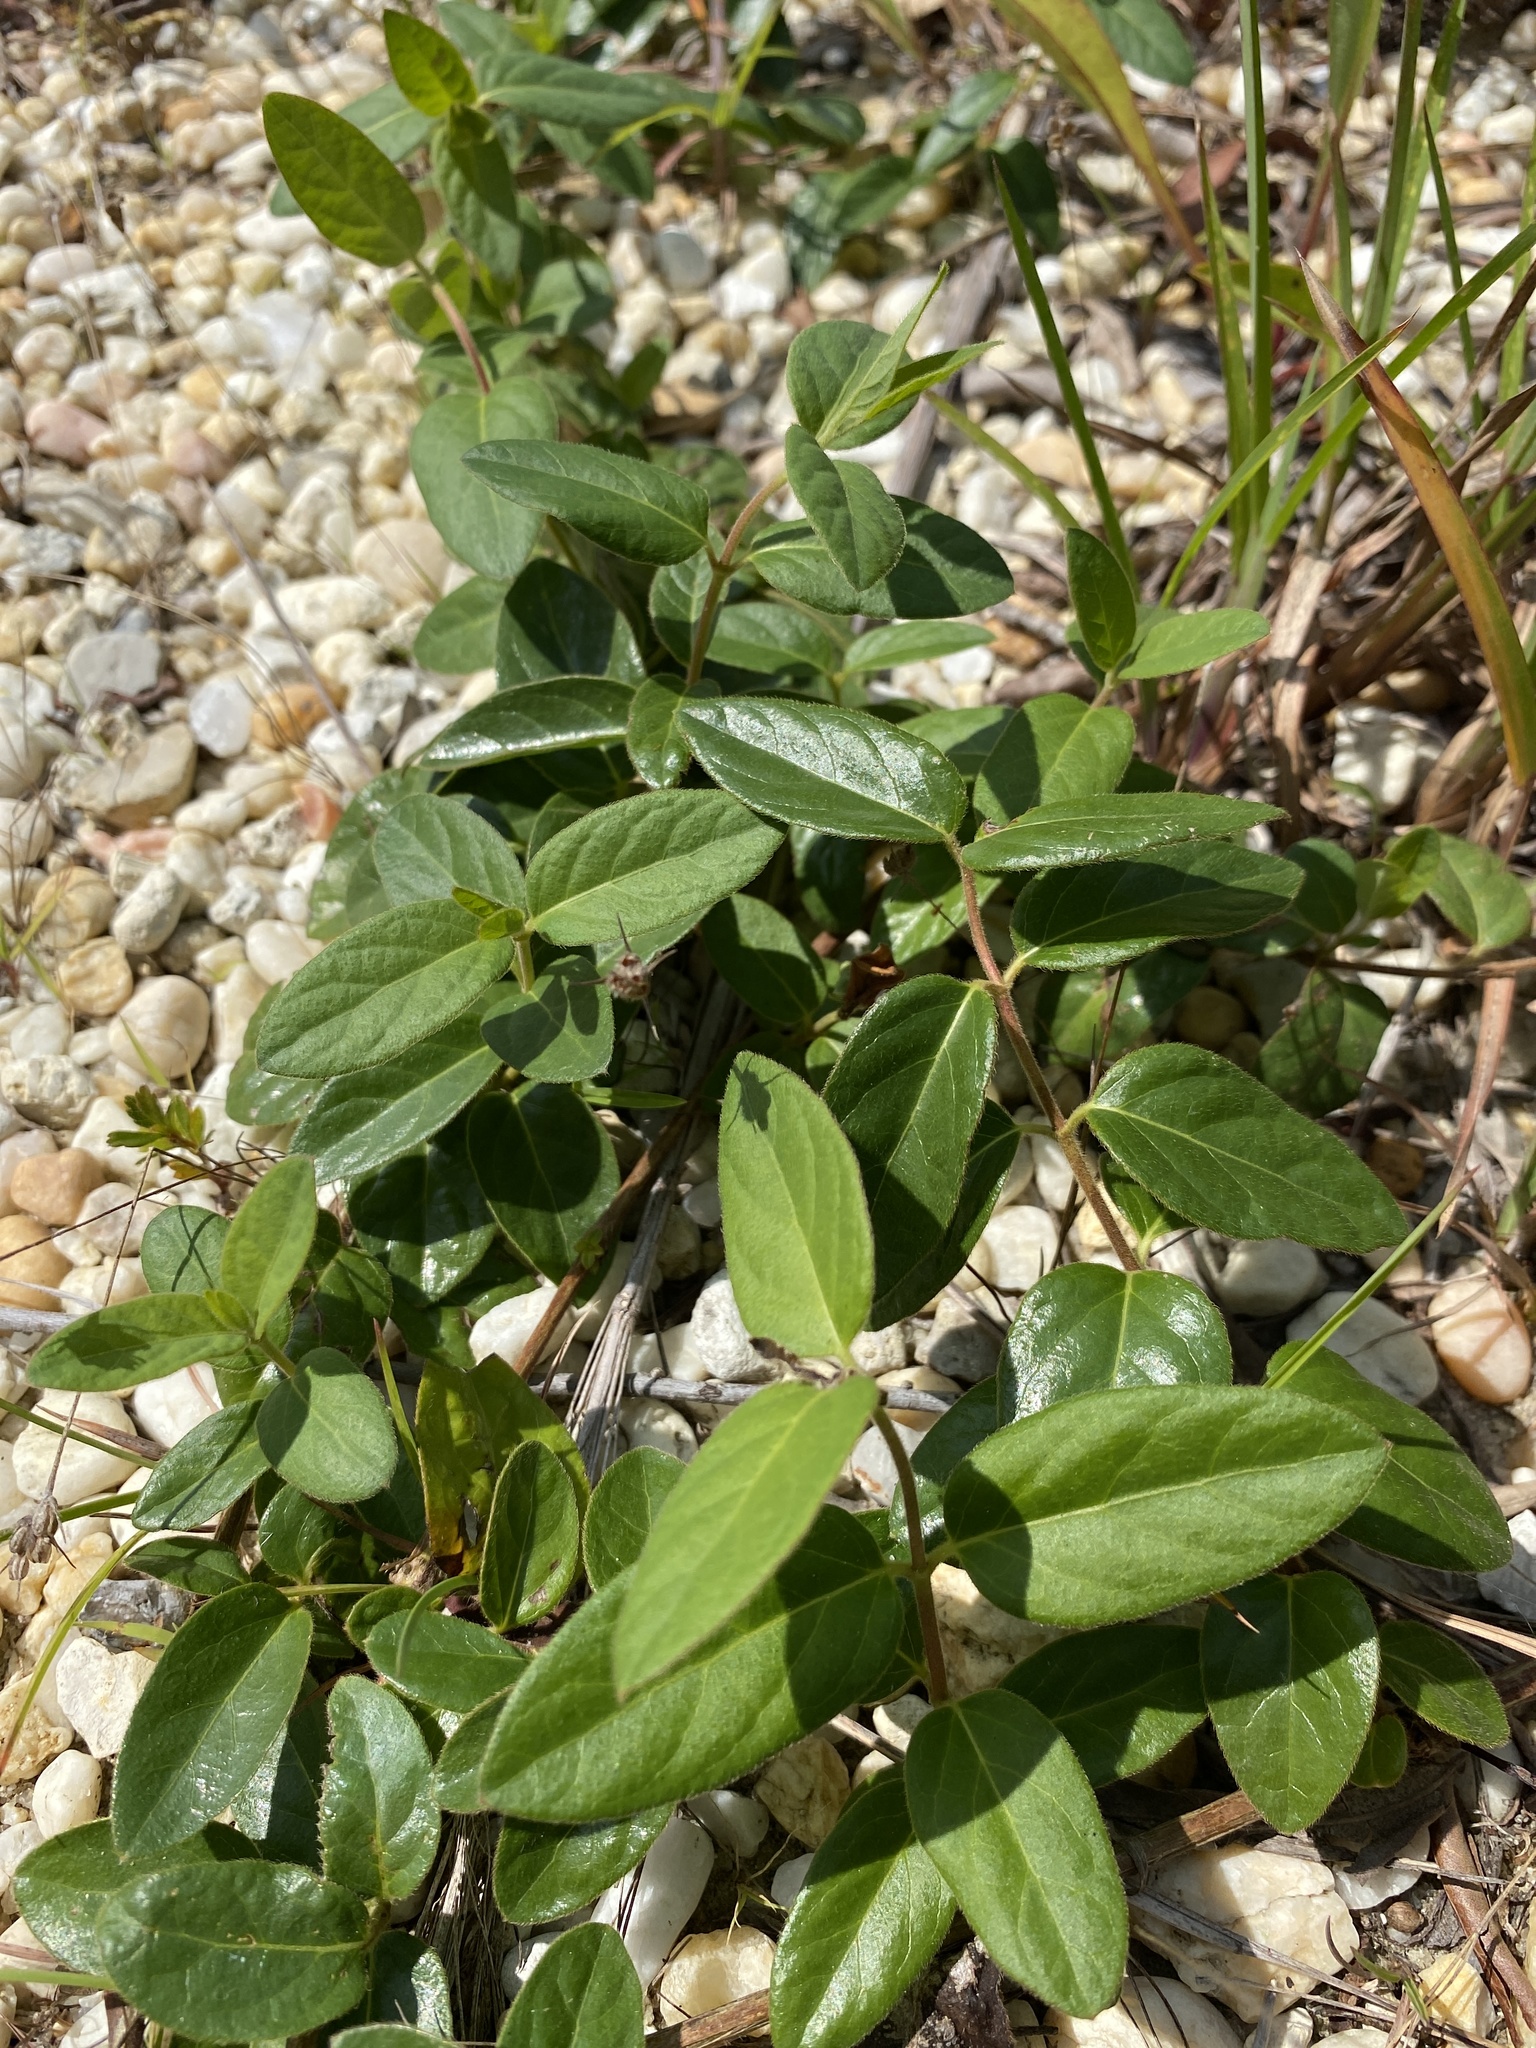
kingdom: Plantae
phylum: Tracheophyta
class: Magnoliopsida
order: Dipsacales
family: Caprifoliaceae
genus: Lonicera
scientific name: Lonicera japonica
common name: Japanese honeysuckle
